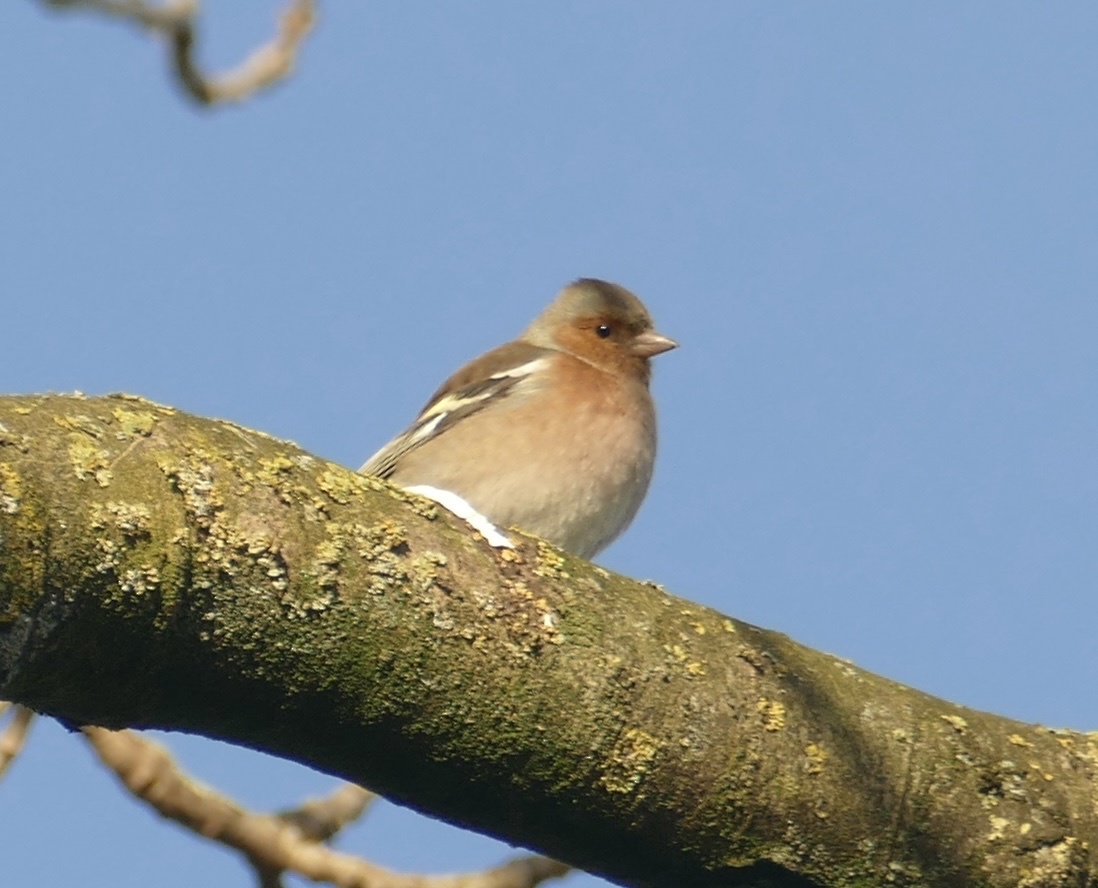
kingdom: Animalia
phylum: Chordata
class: Aves
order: Passeriformes
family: Fringillidae
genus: Fringilla
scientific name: Fringilla coelebs
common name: Common chaffinch
